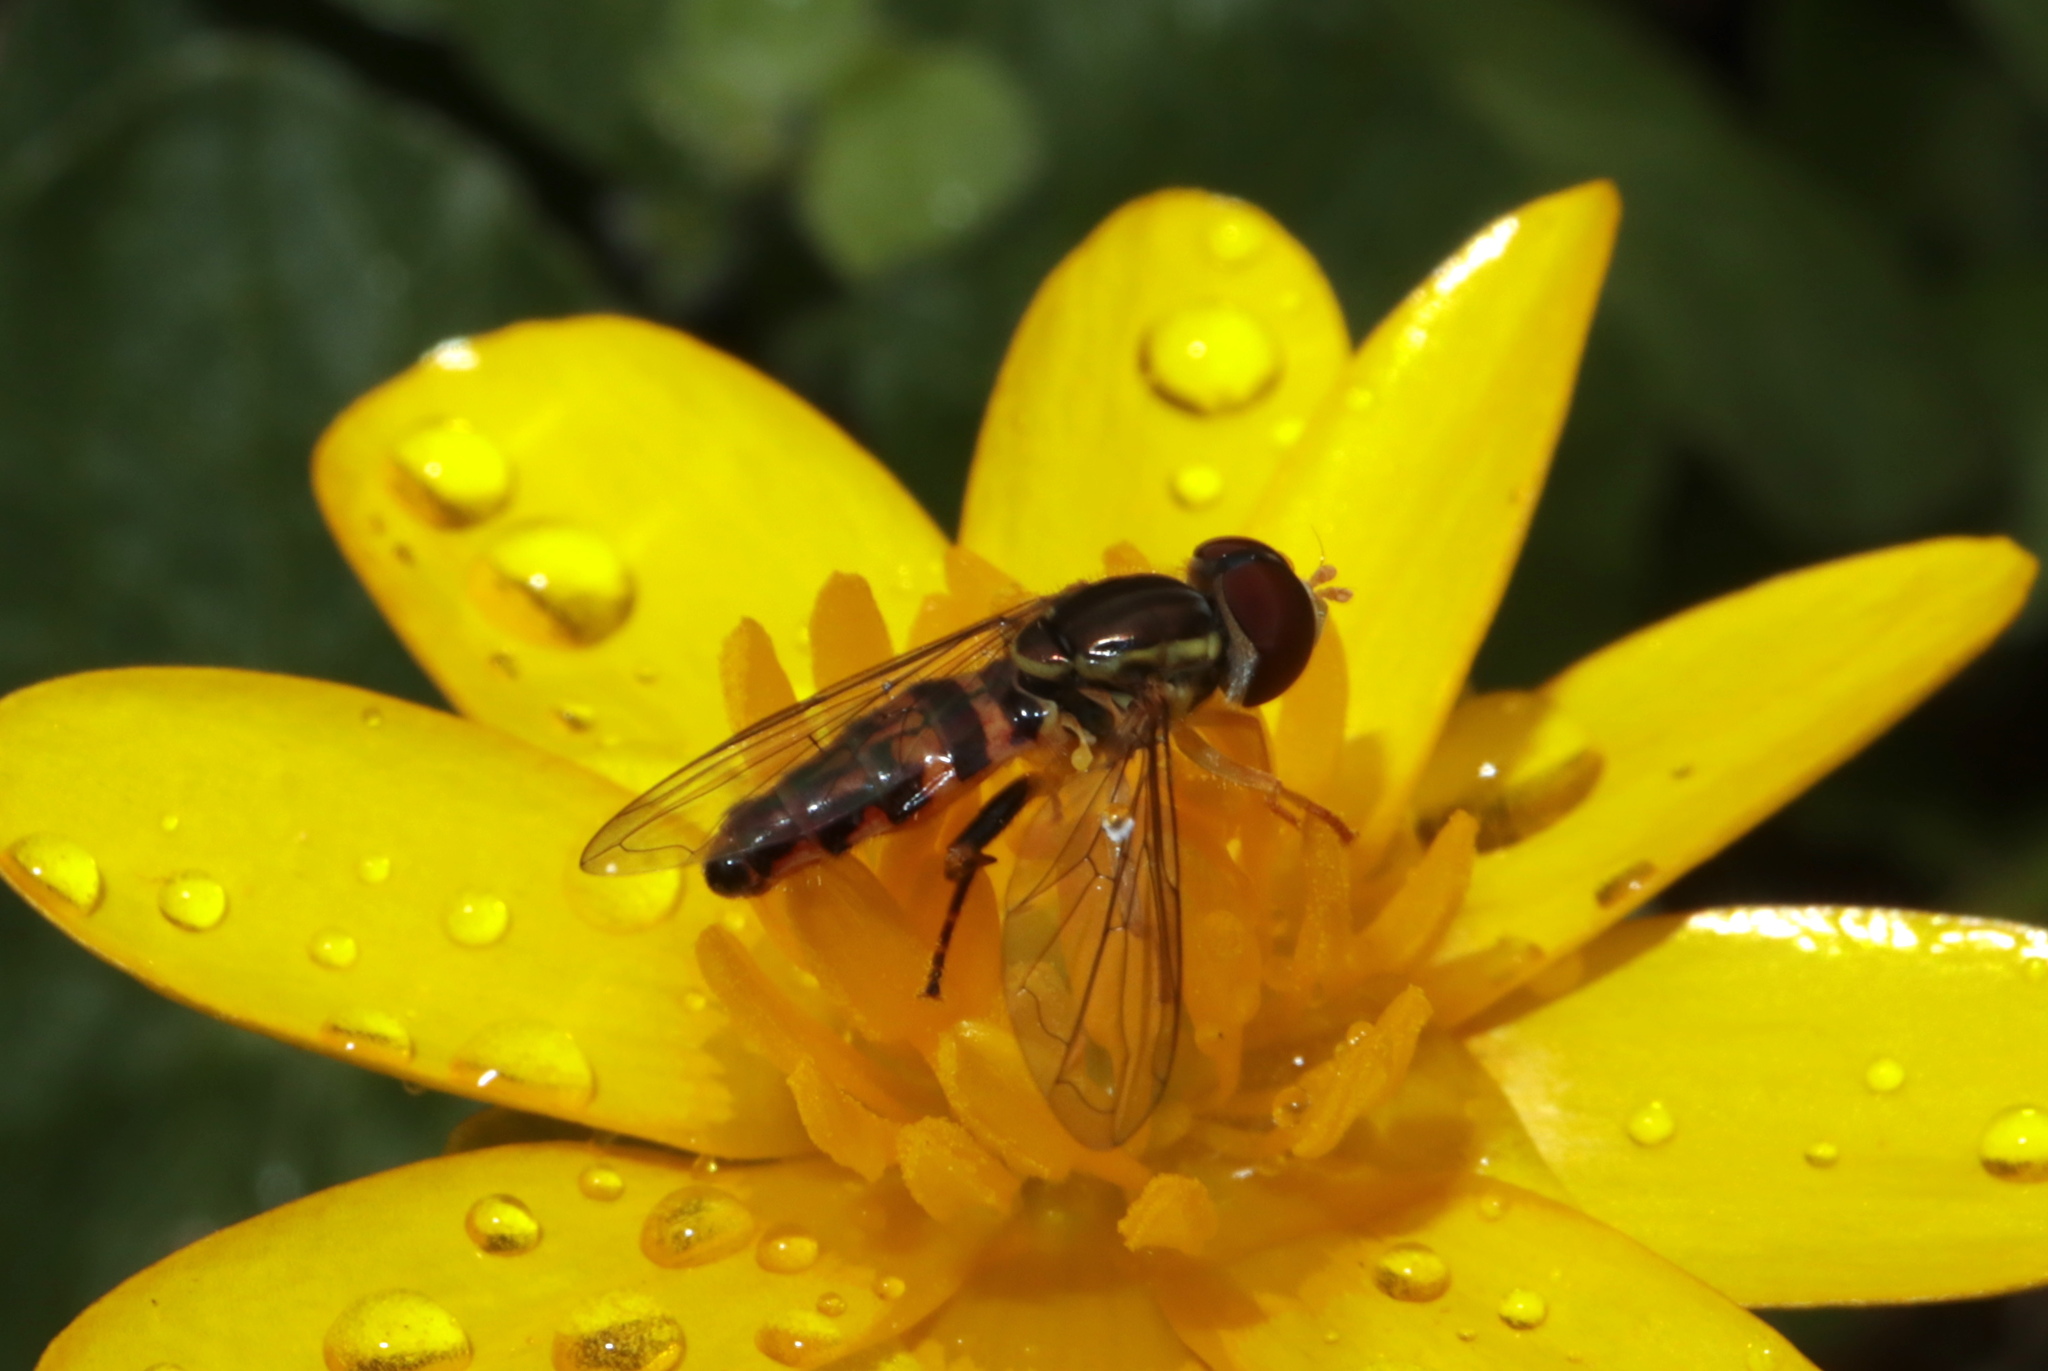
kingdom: Animalia
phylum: Arthropoda
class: Insecta
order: Diptera
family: Syrphidae
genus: Toxomerus
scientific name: Toxomerus geminatus
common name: Eastern calligrapher
